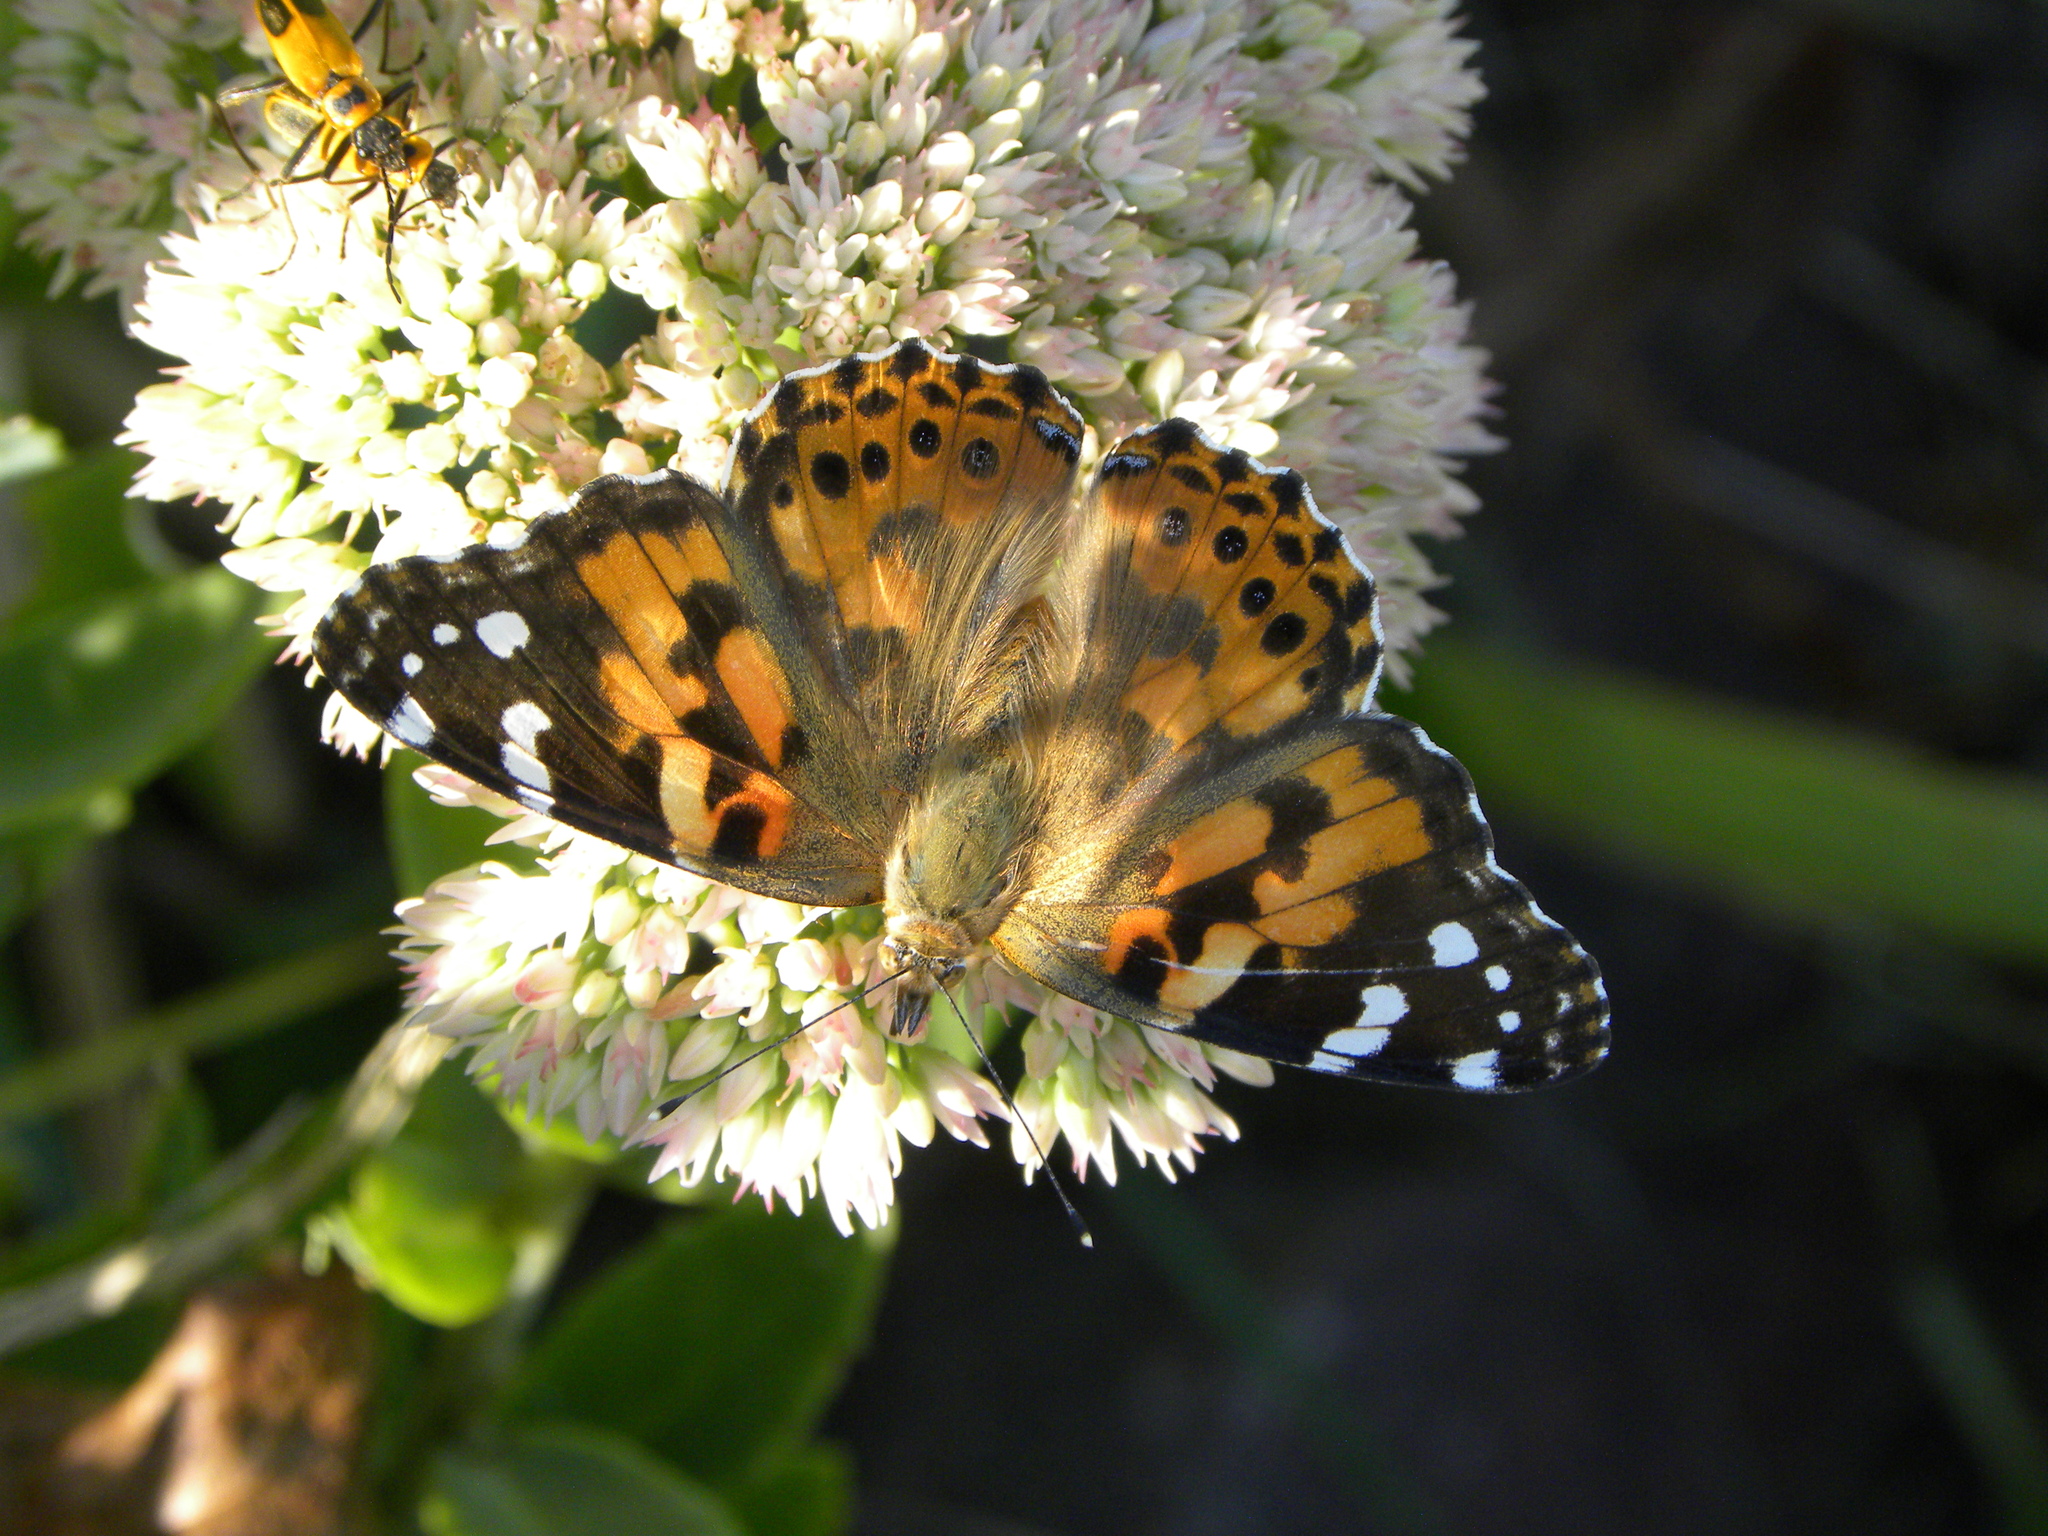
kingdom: Animalia
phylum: Arthropoda
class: Insecta
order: Lepidoptera
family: Nymphalidae
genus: Vanessa
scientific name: Vanessa cardui
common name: Painted lady
